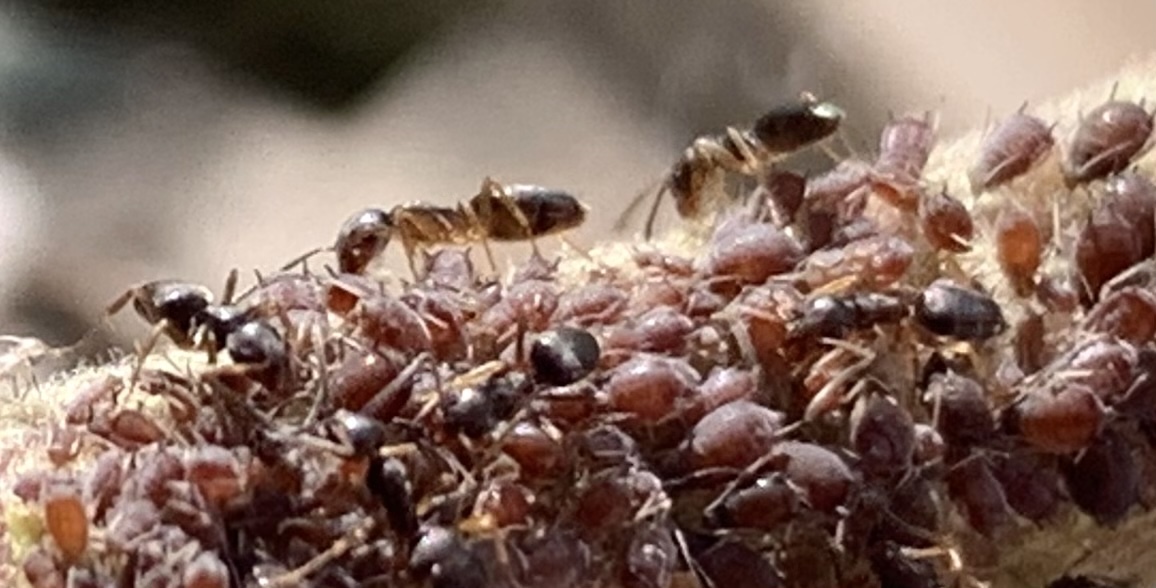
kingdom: Animalia
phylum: Arthropoda
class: Insecta
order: Hymenoptera
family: Formicidae
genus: Tapinoma
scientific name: Tapinoma sessile
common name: Odorous house ant
